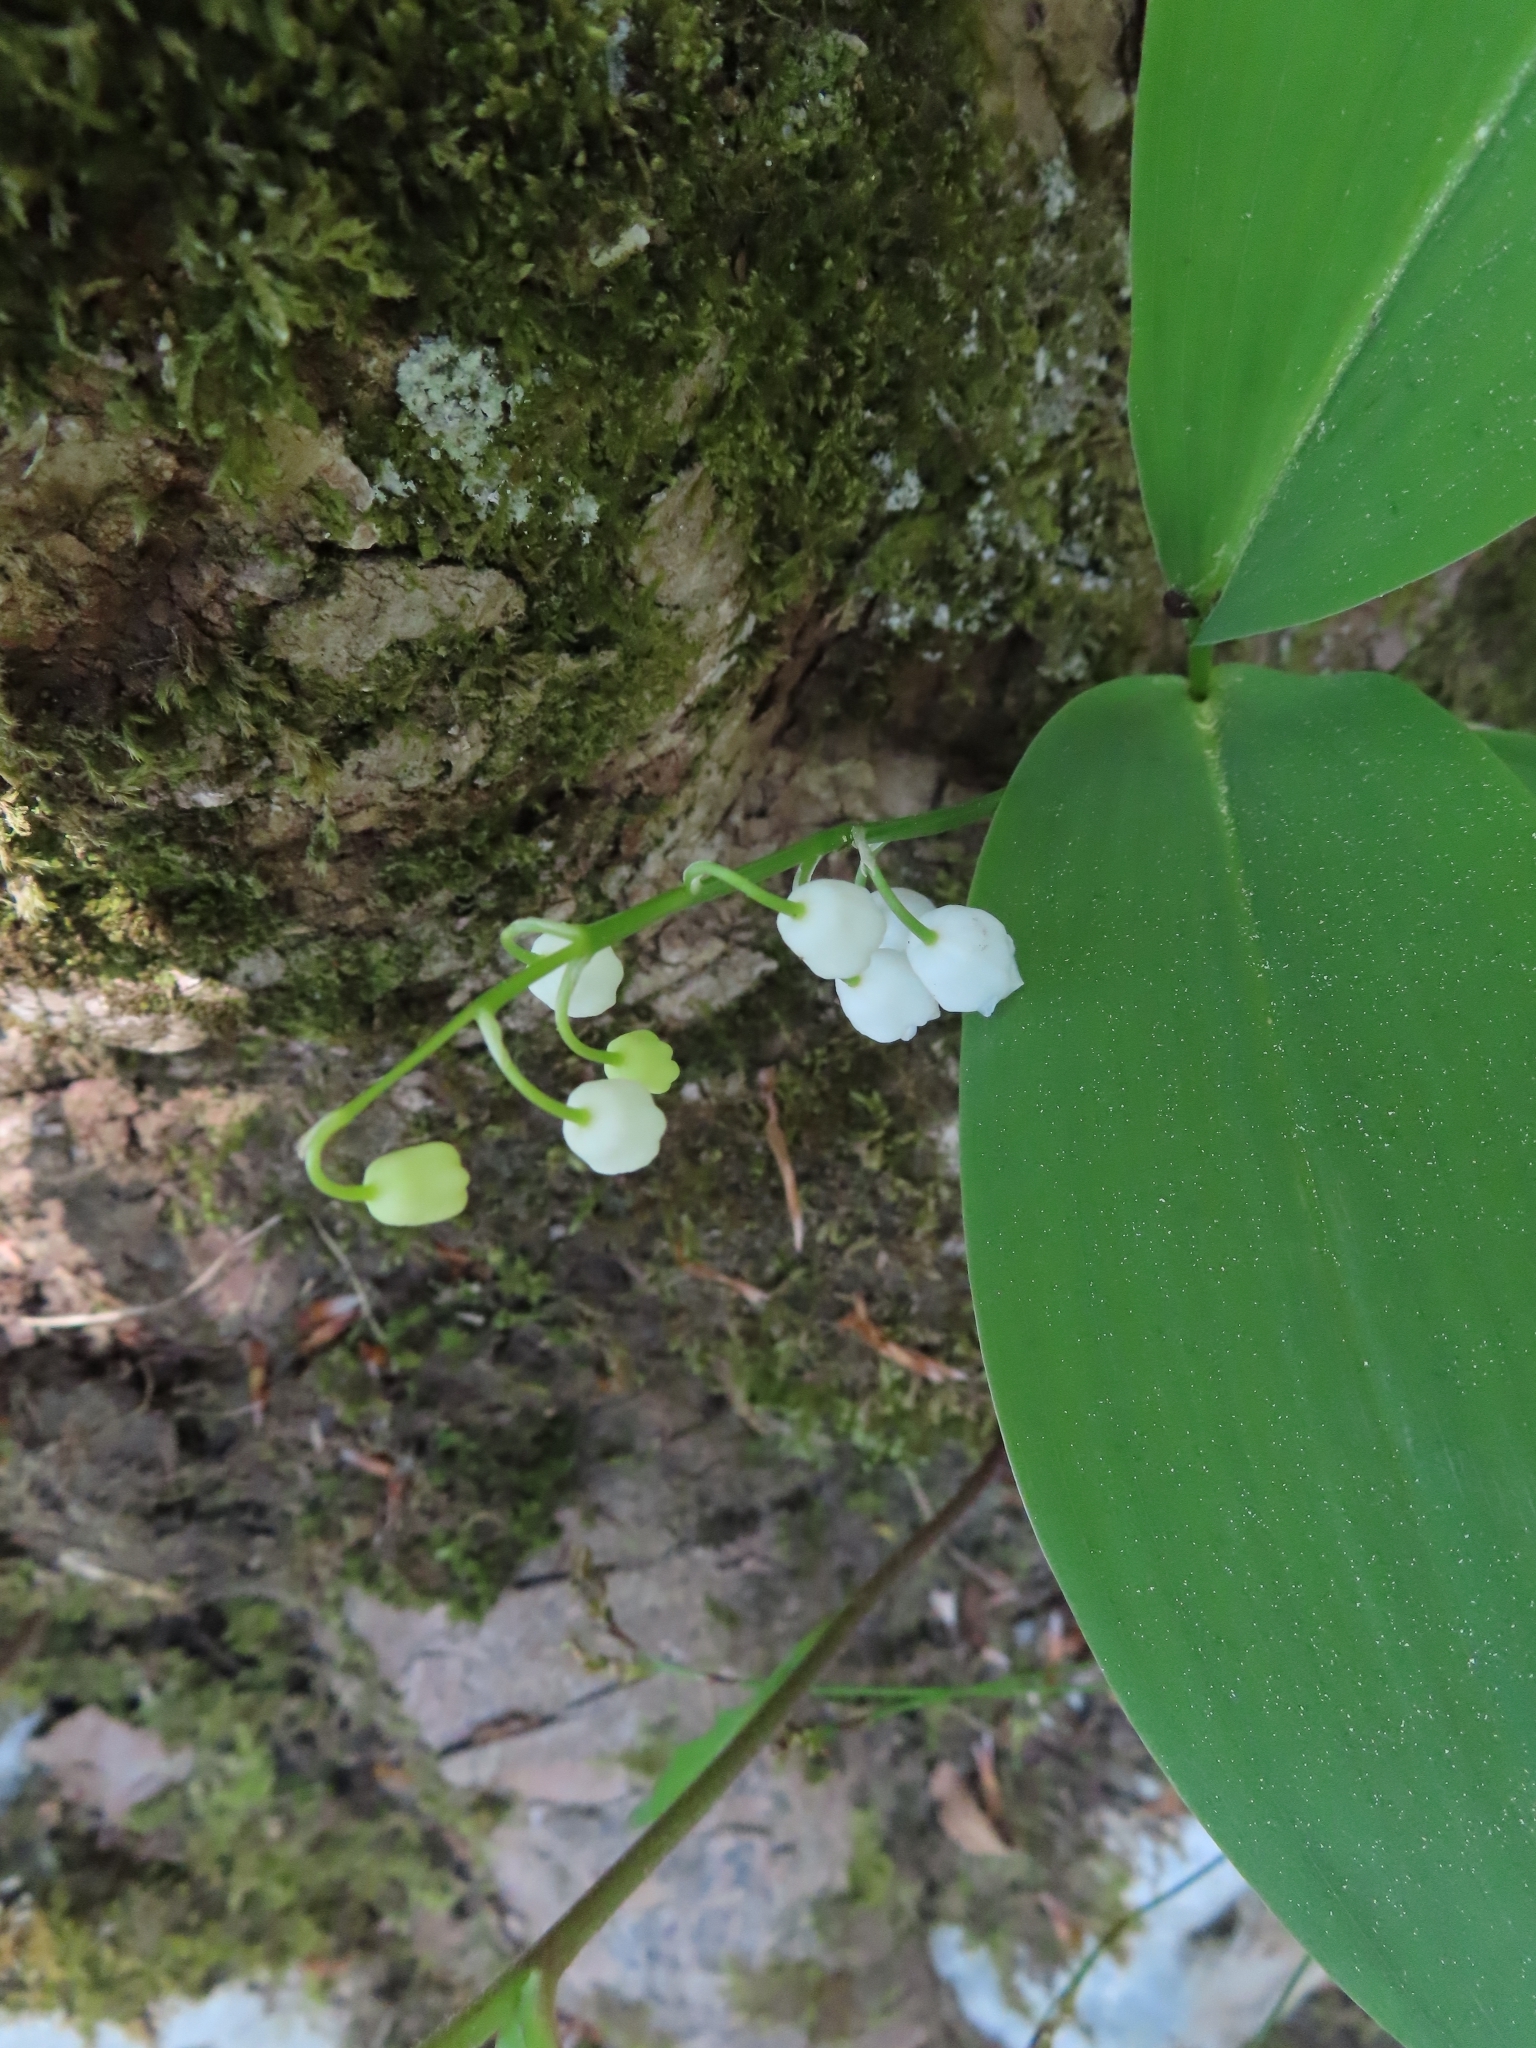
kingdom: Plantae
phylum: Tracheophyta
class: Liliopsida
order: Asparagales
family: Asparagaceae
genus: Convallaria
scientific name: Convallaria majalis
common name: Lily-of-the-valley
